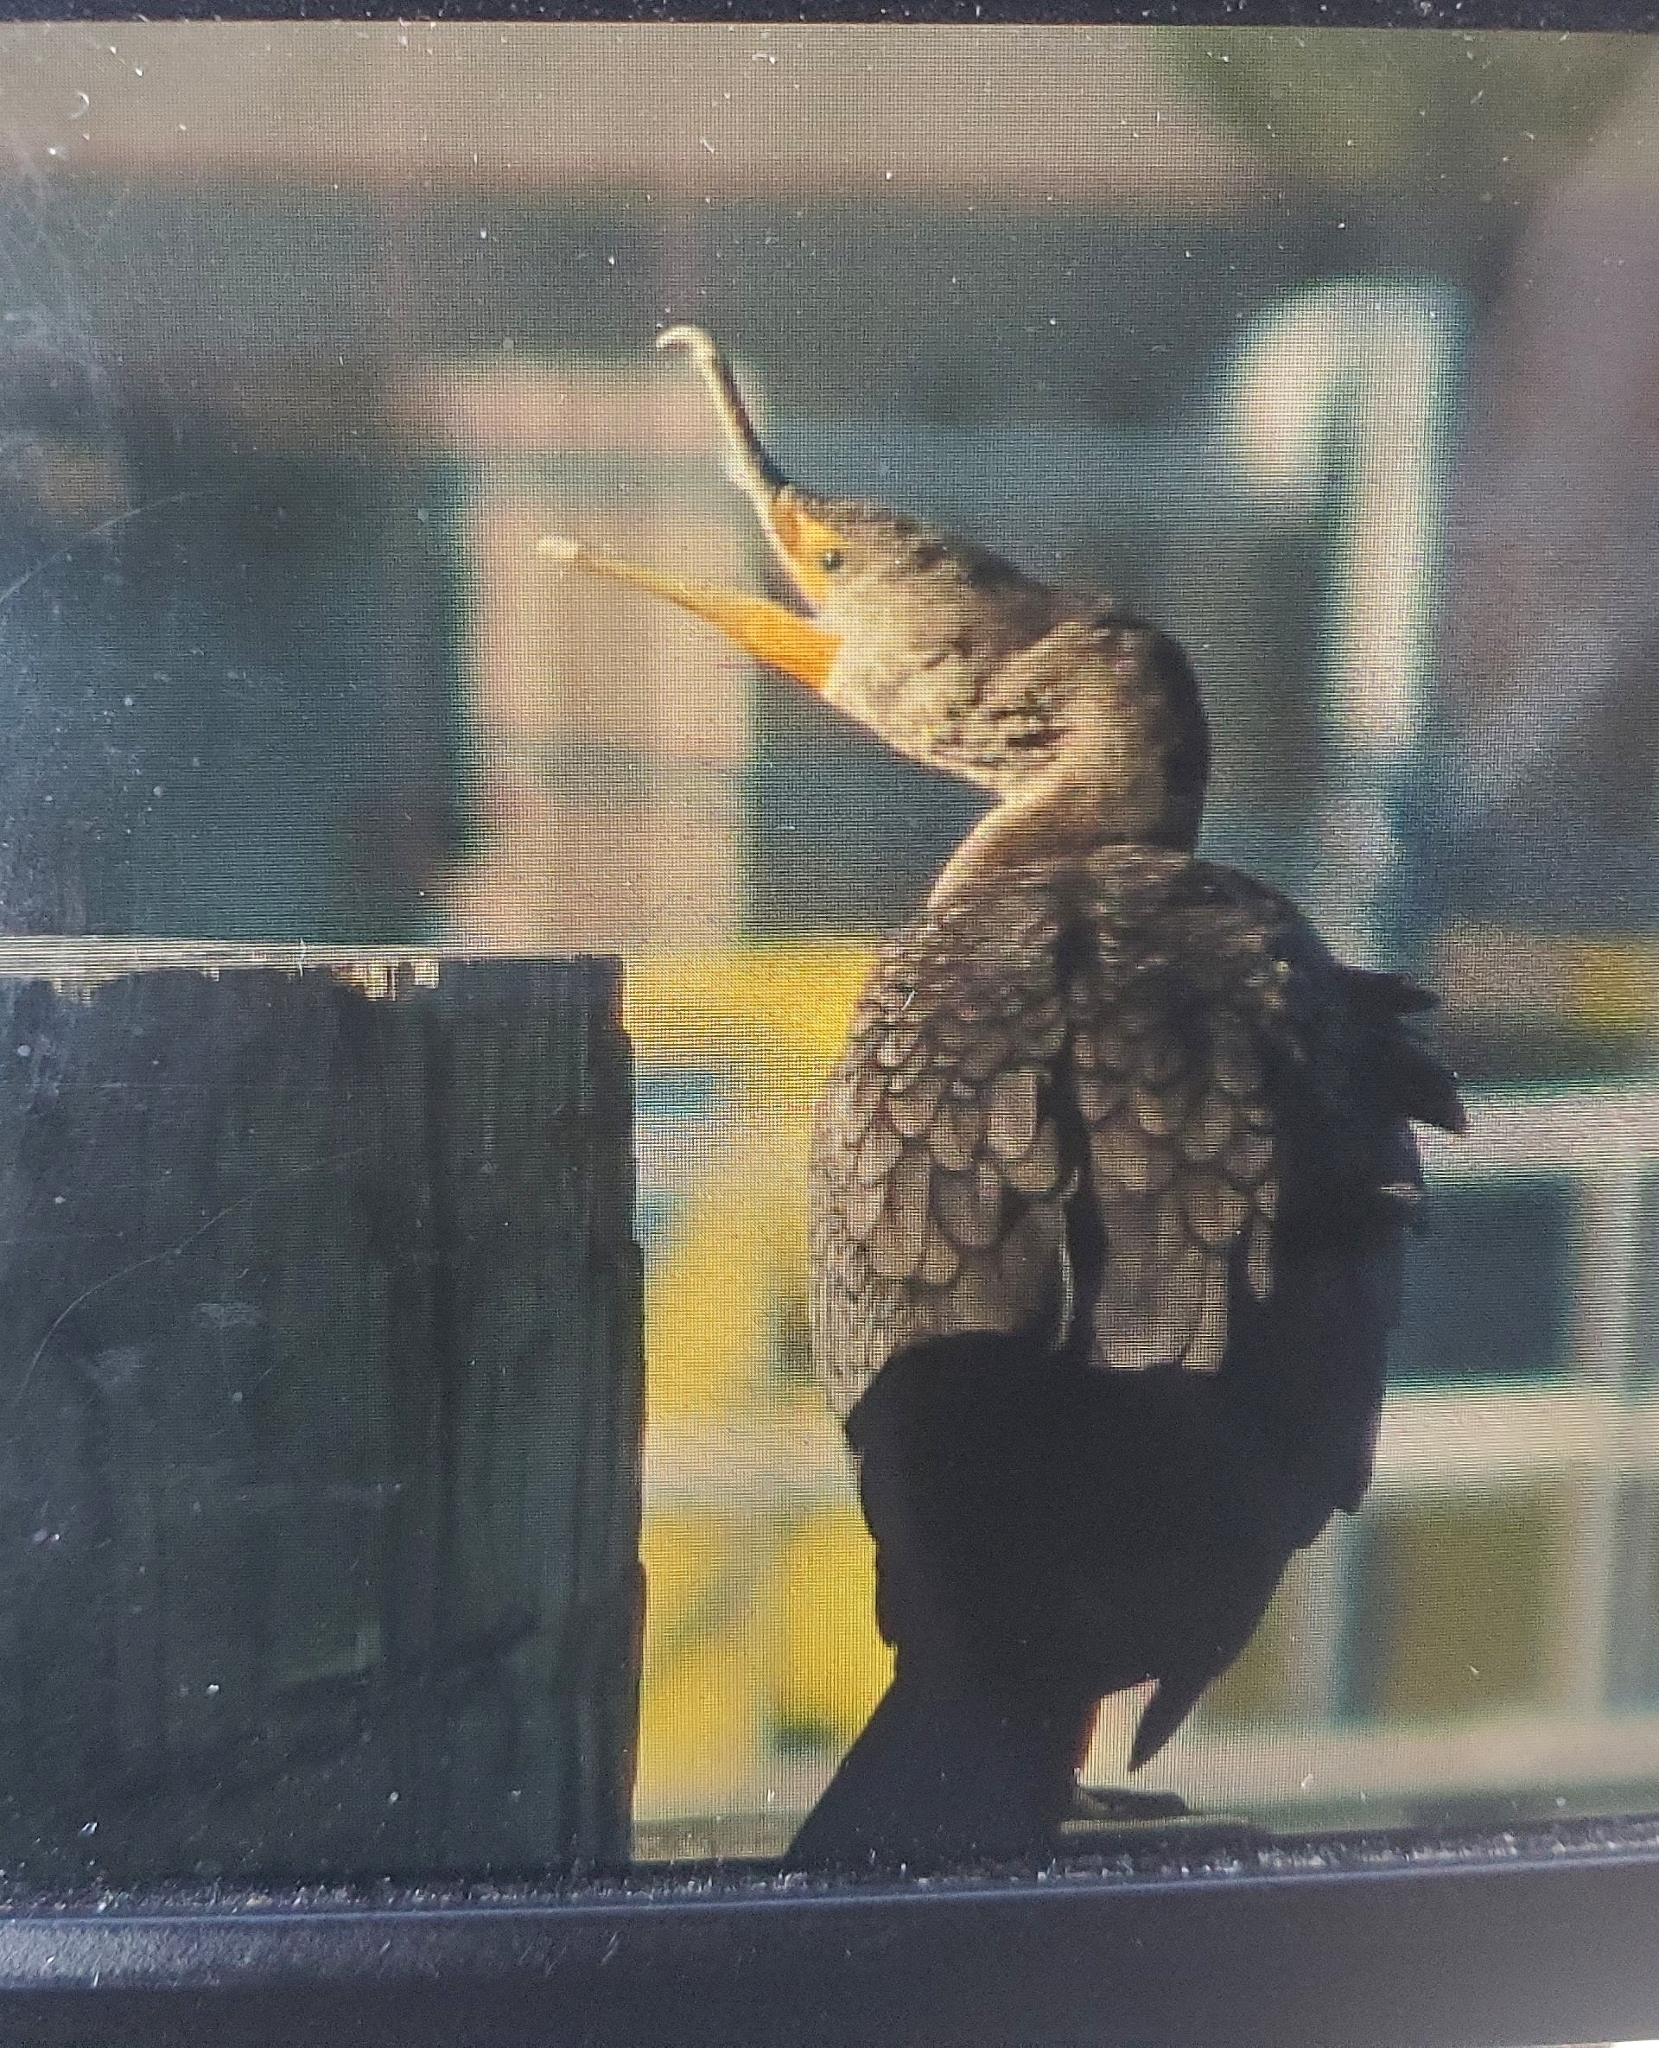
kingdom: Animalia
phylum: Chordata
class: Aves
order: Suliformes
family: Phalacrocoracidae
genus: Phalacrocorax
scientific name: Phalacrocorax auritus
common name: Double-crested cormorant
